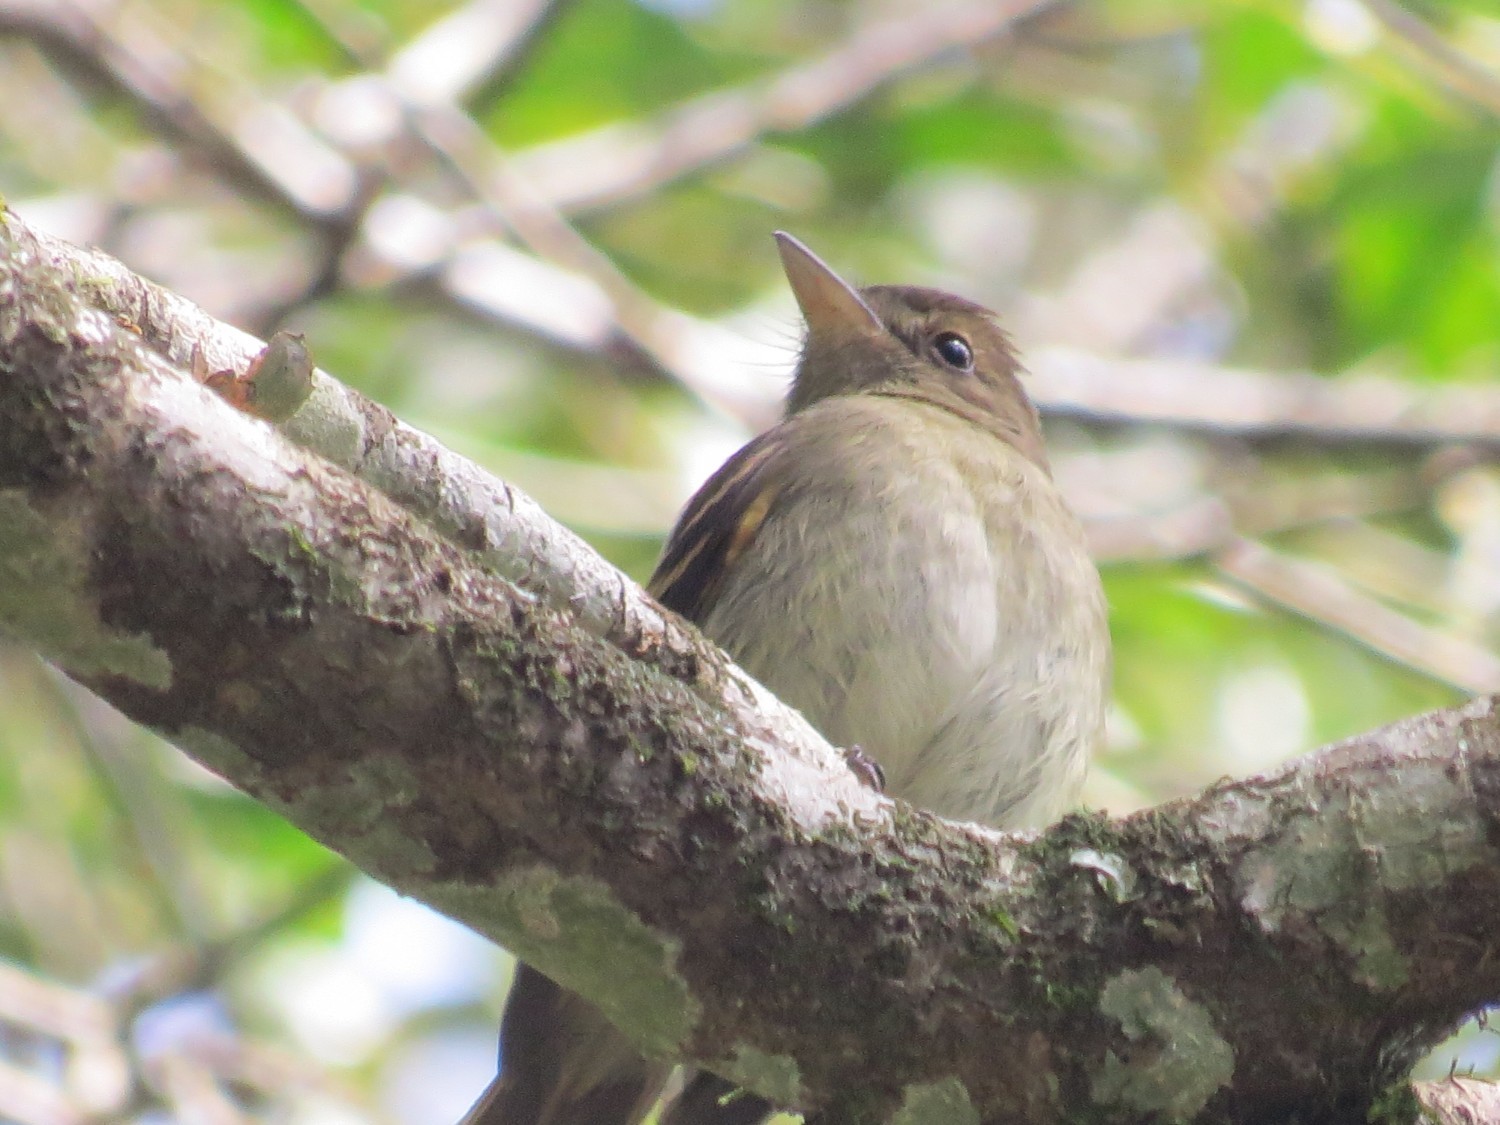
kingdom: Animalia
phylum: Chordata
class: Aves
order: Passeriformes
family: Tyrannidae
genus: Lathrotriccus
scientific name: Lathrotriccus euleri
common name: Euler's flycatcher
